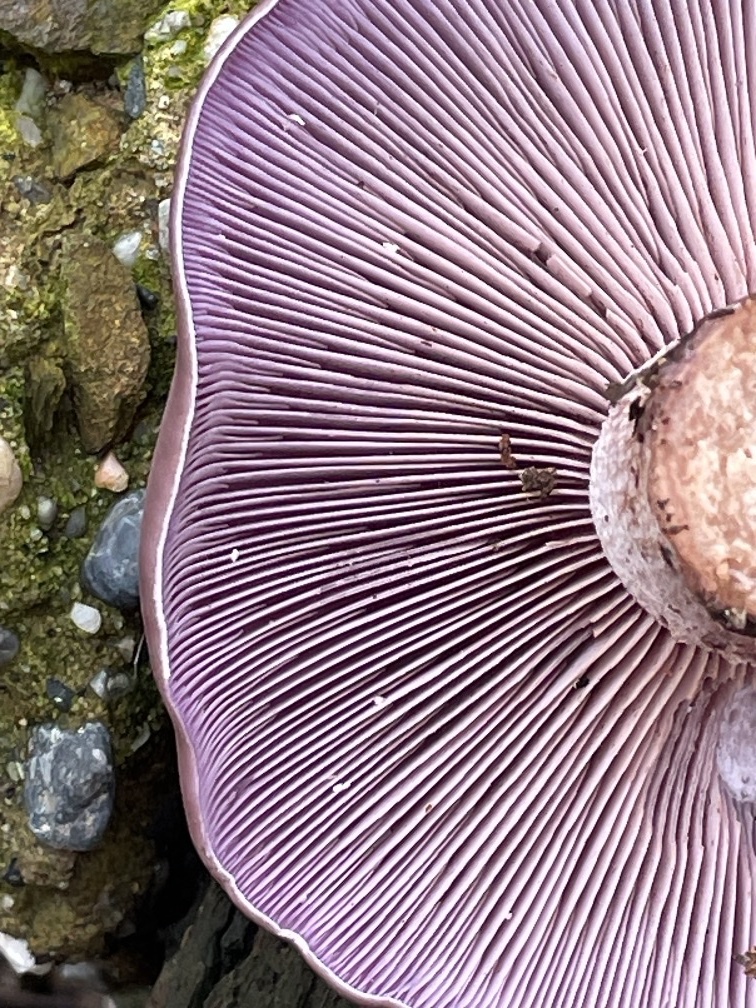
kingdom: Fungi
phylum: Basidiomycota
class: Agaricomycetes
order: Agaricales
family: Tricholomataceae
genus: Collybia
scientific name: Collybia
